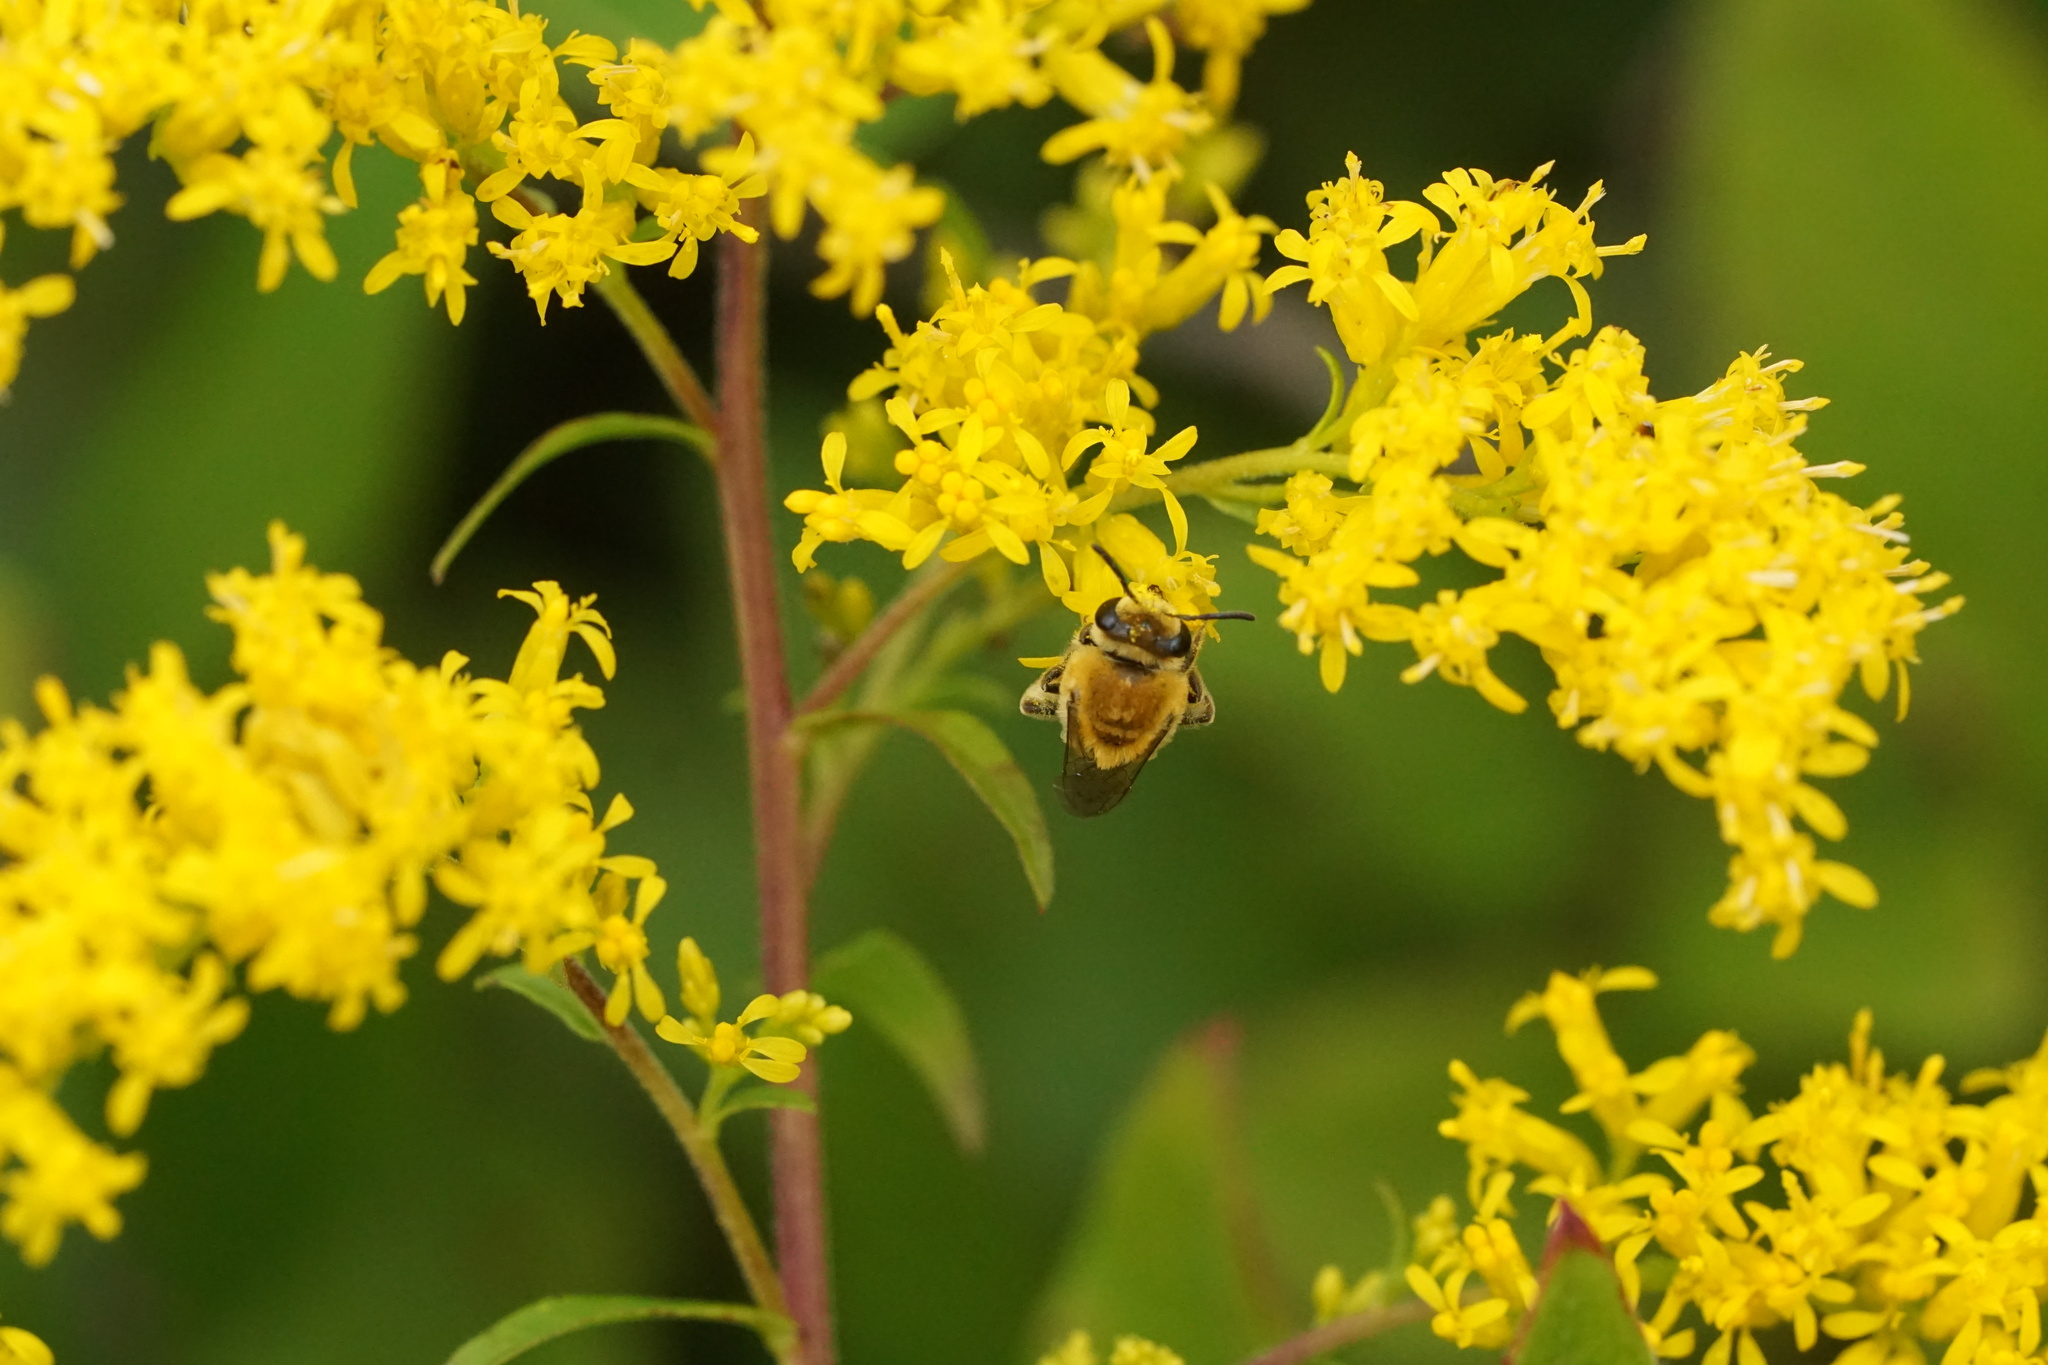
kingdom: Animalia
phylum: Arthropoda
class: Insecta
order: Hymenoptera
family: Colletidae
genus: Colletes
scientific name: Colletes solidaginis
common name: Goldenrod cellophane bee
